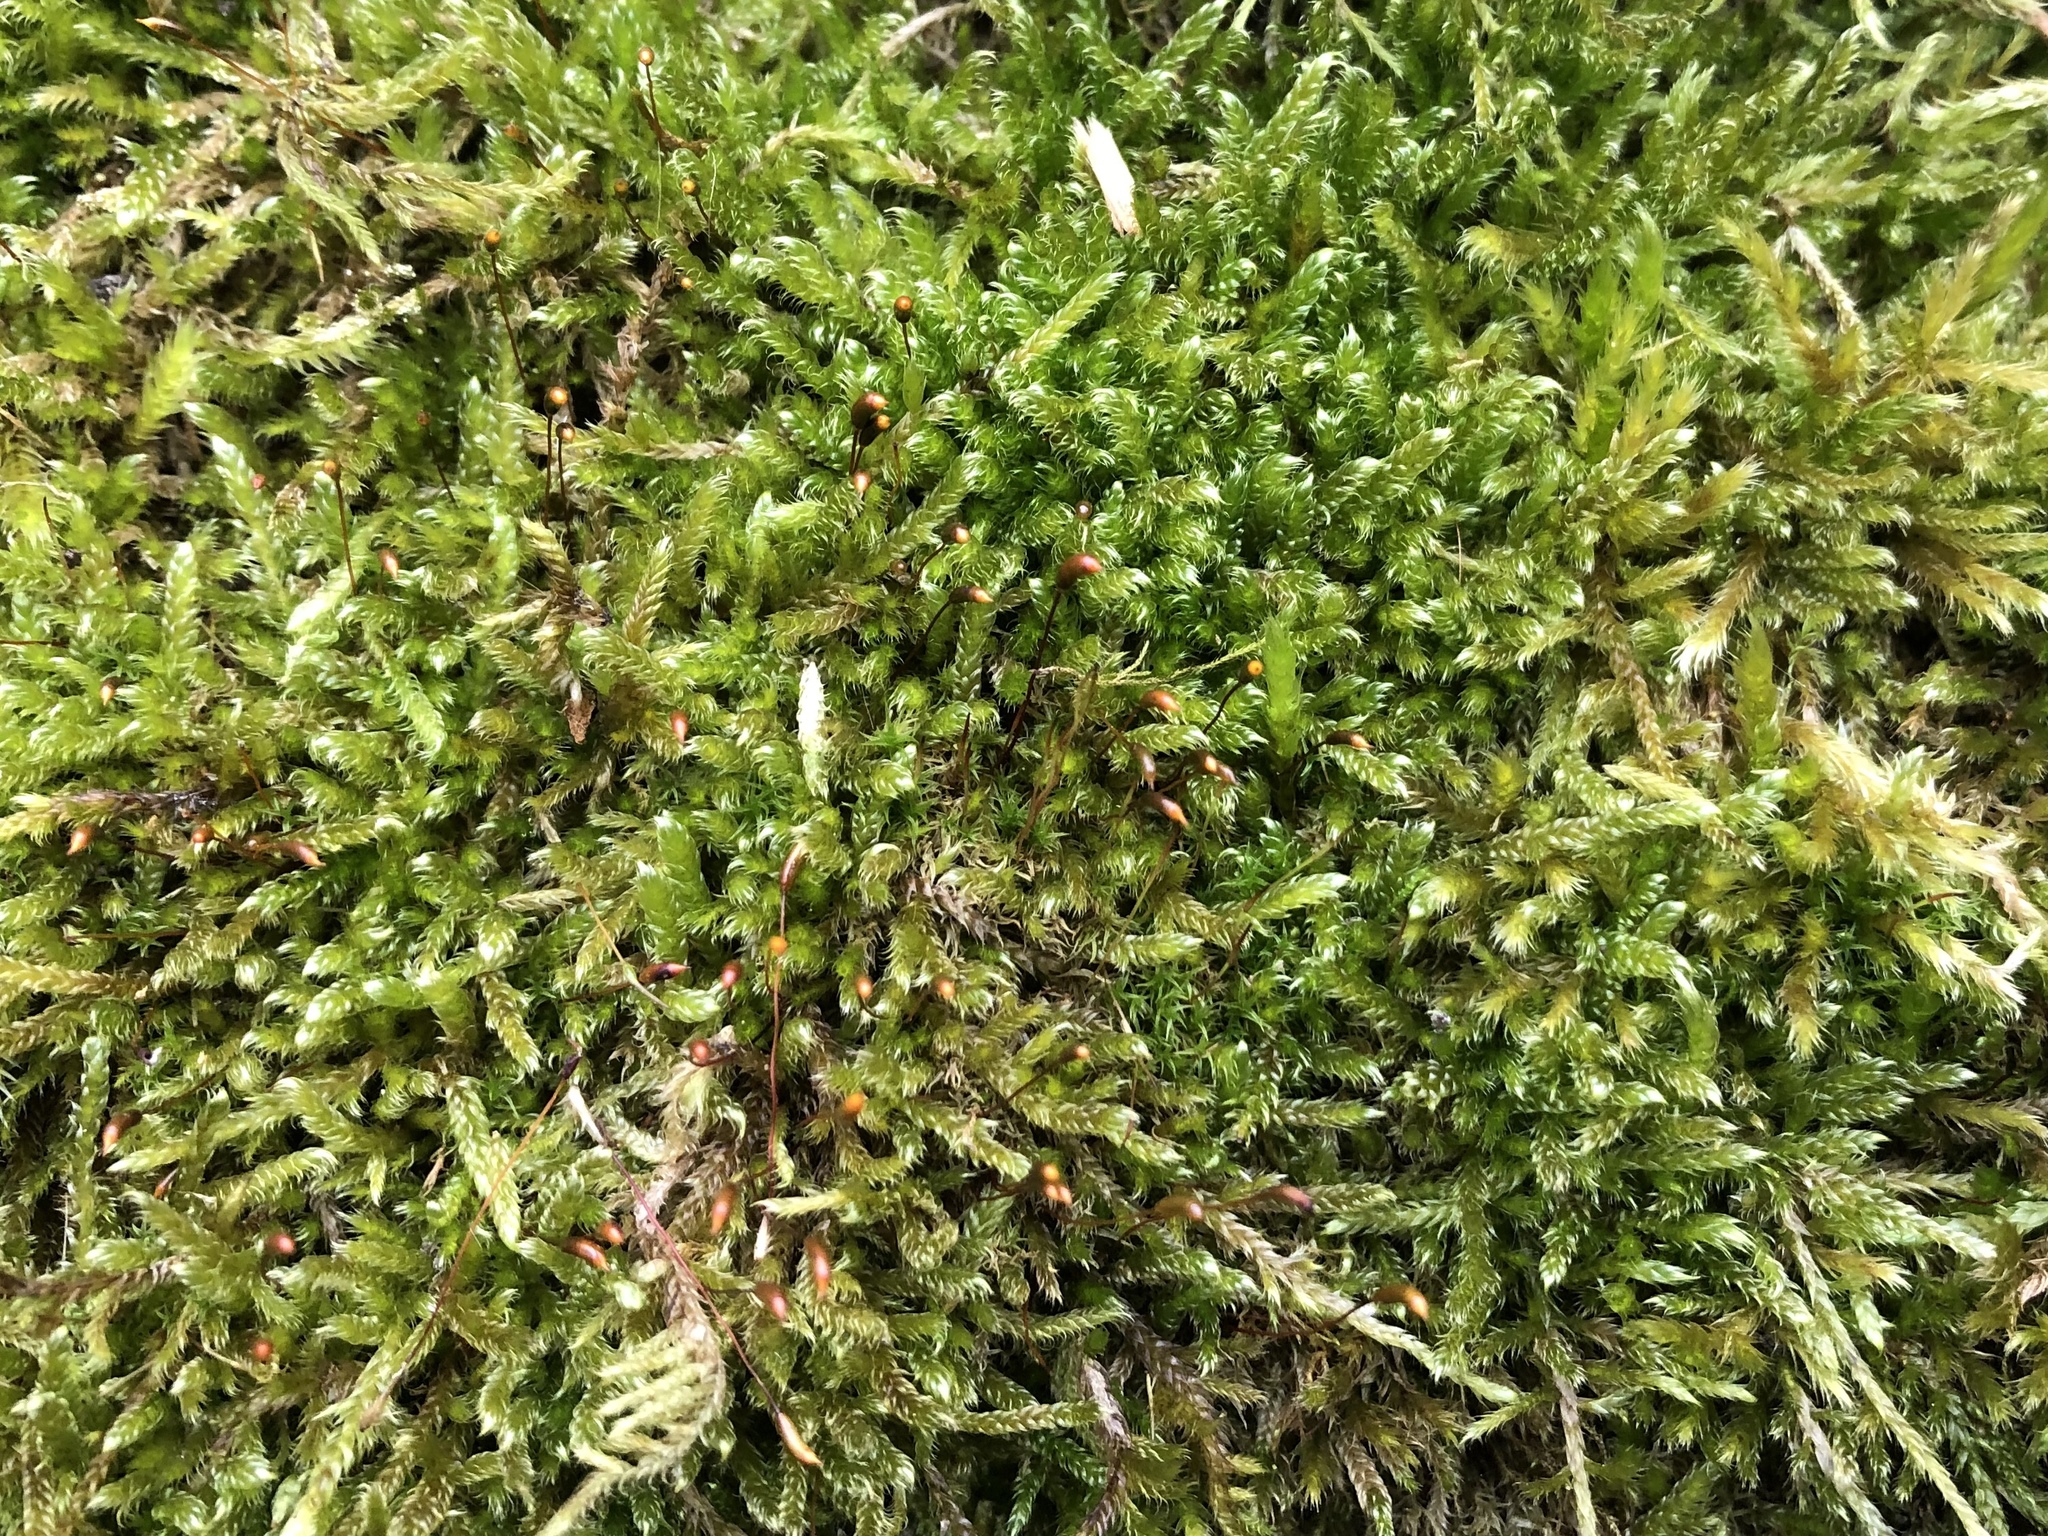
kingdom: Plantae
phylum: Bryophyta
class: Bryopsida
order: Hypnales
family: Hypnaceae
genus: Hypnum
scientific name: Hypnum cupressiforme
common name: Cypress-leaved plait-moss
